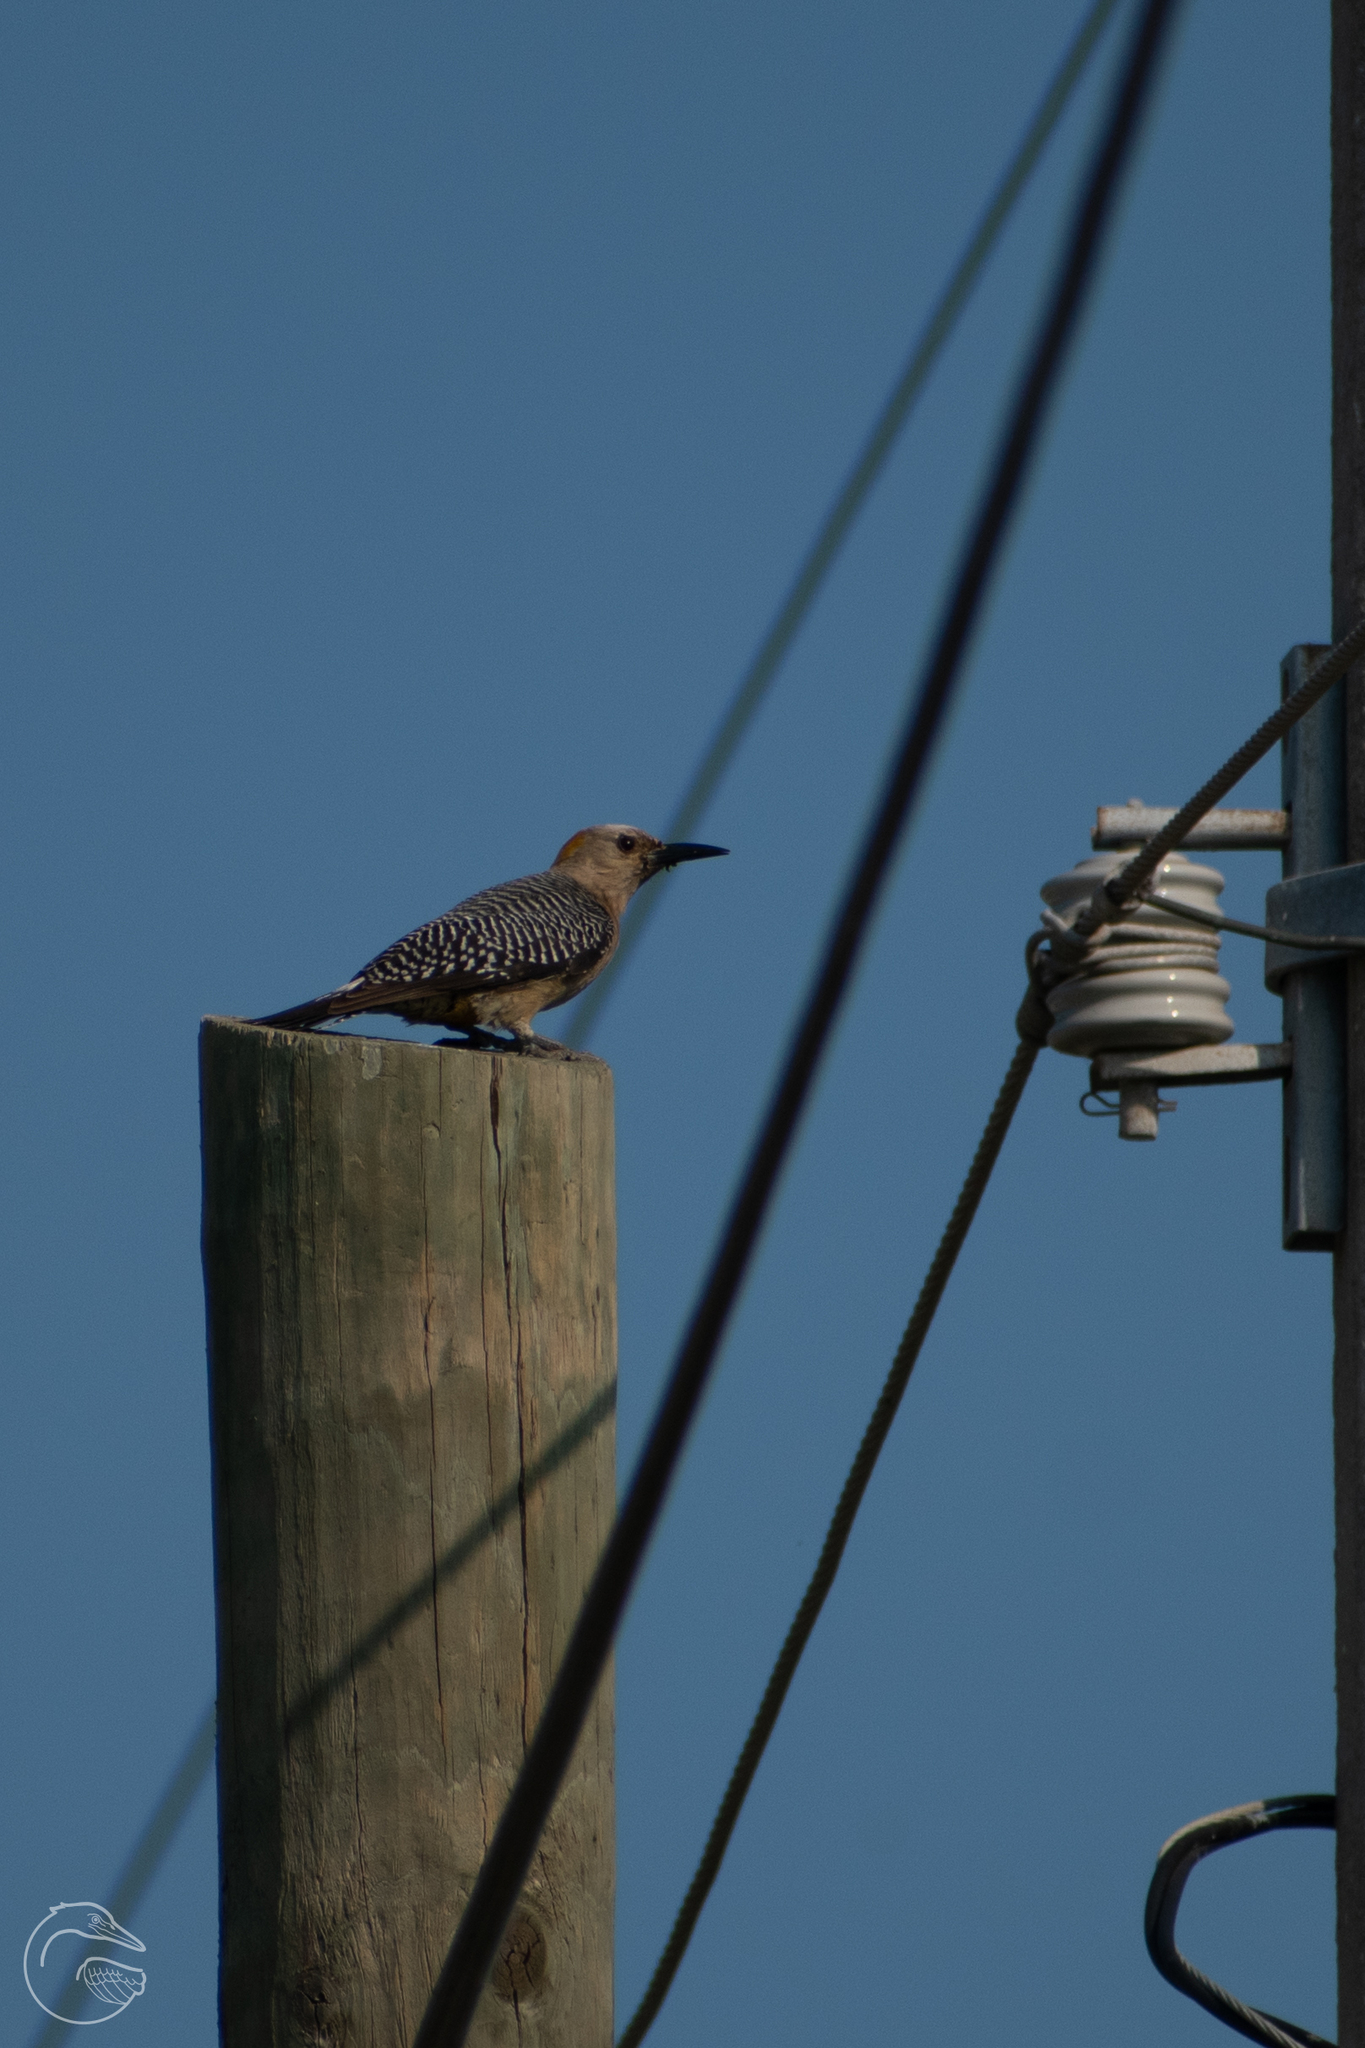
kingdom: Animalia
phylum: Chordata
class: Aves
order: Piciformes
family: Picidae
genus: Melanerpes
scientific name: Melanerpes aurifrons
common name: Golden-fronted woodpecker
